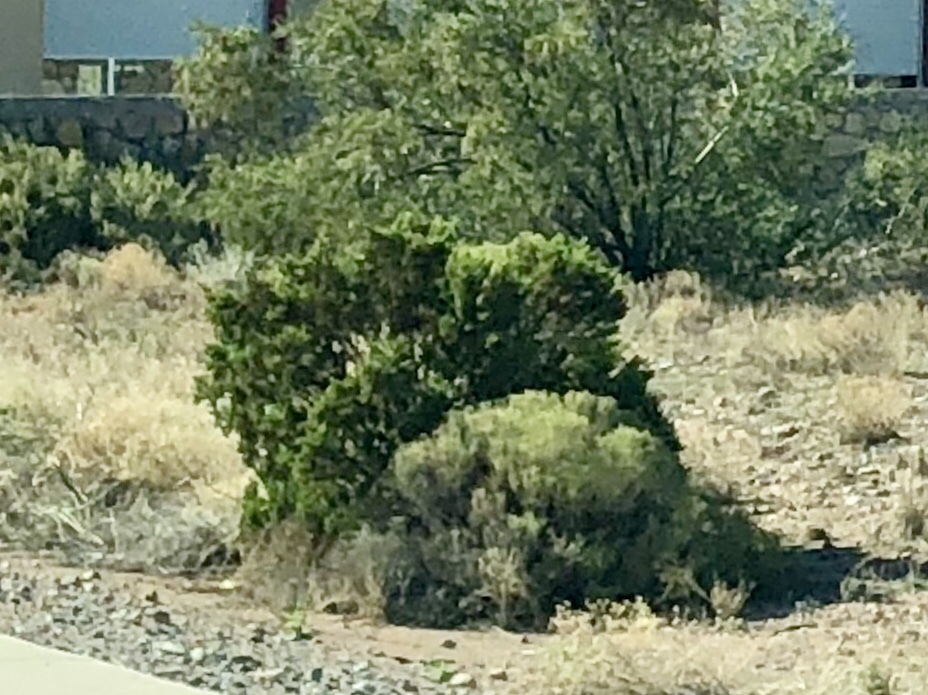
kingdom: Plantae
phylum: Tracheophyta
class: Magnoliopsida
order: Zygophyllales
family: Zygophyllaceae
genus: Larrea
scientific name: Larrea tridentata
